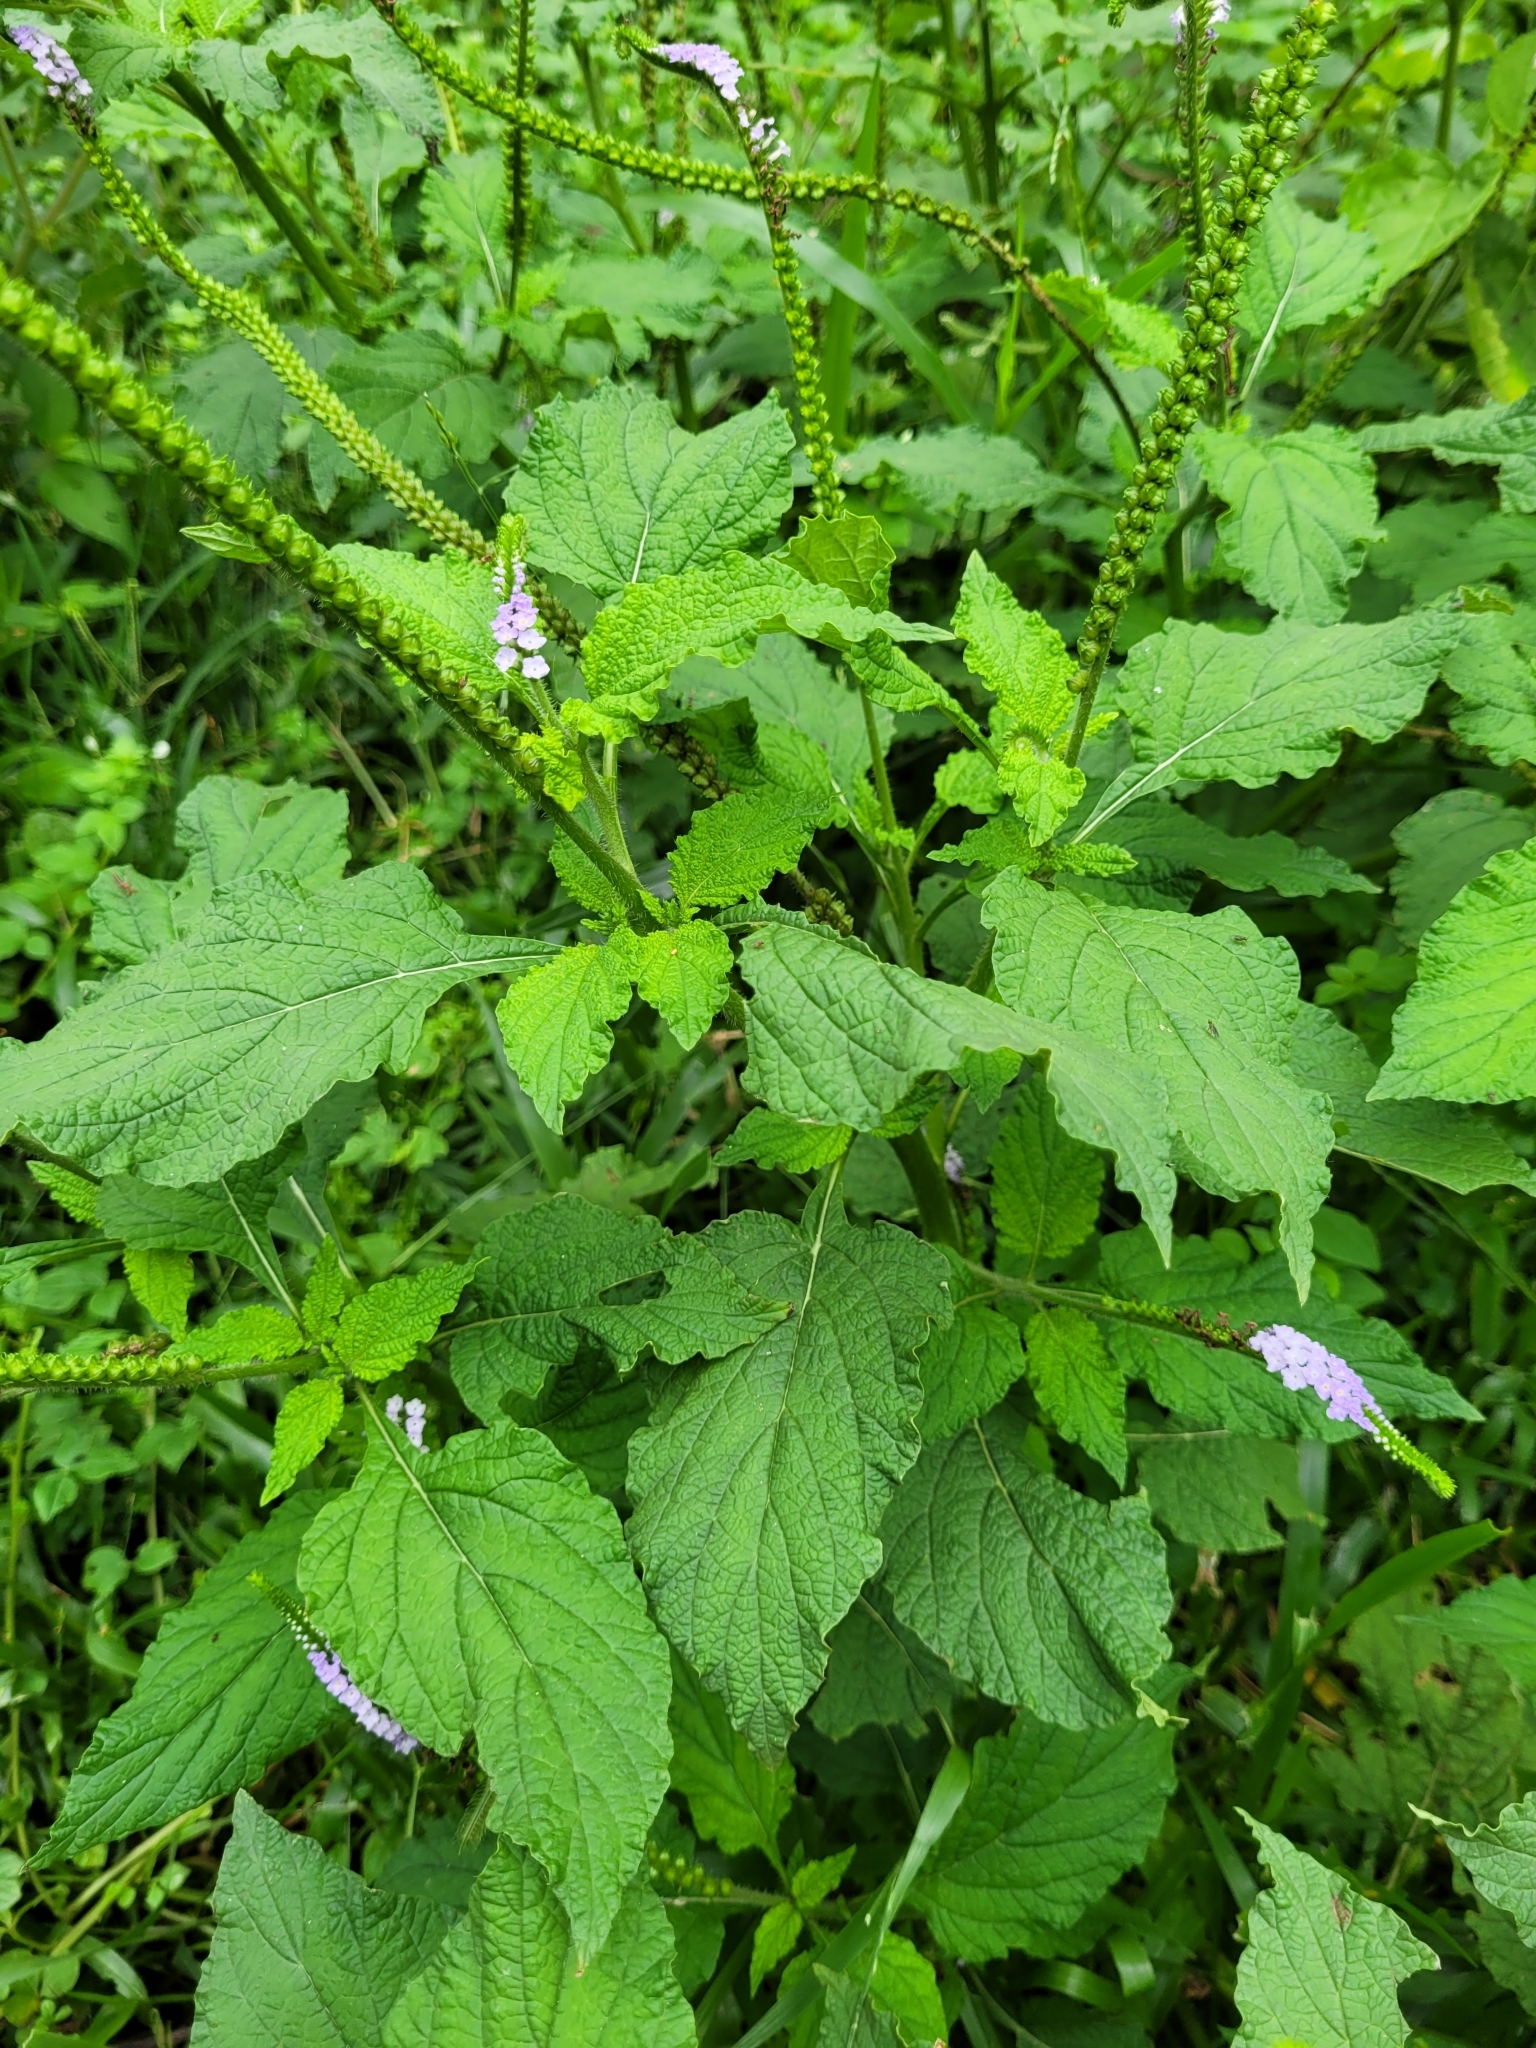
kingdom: Plantae
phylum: Tracheophyta
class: Magnoliopsida
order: Boraginales
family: Heliotropiaceae
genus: Heliotropium
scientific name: Heliotropium indicum
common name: Indian heliotrope
